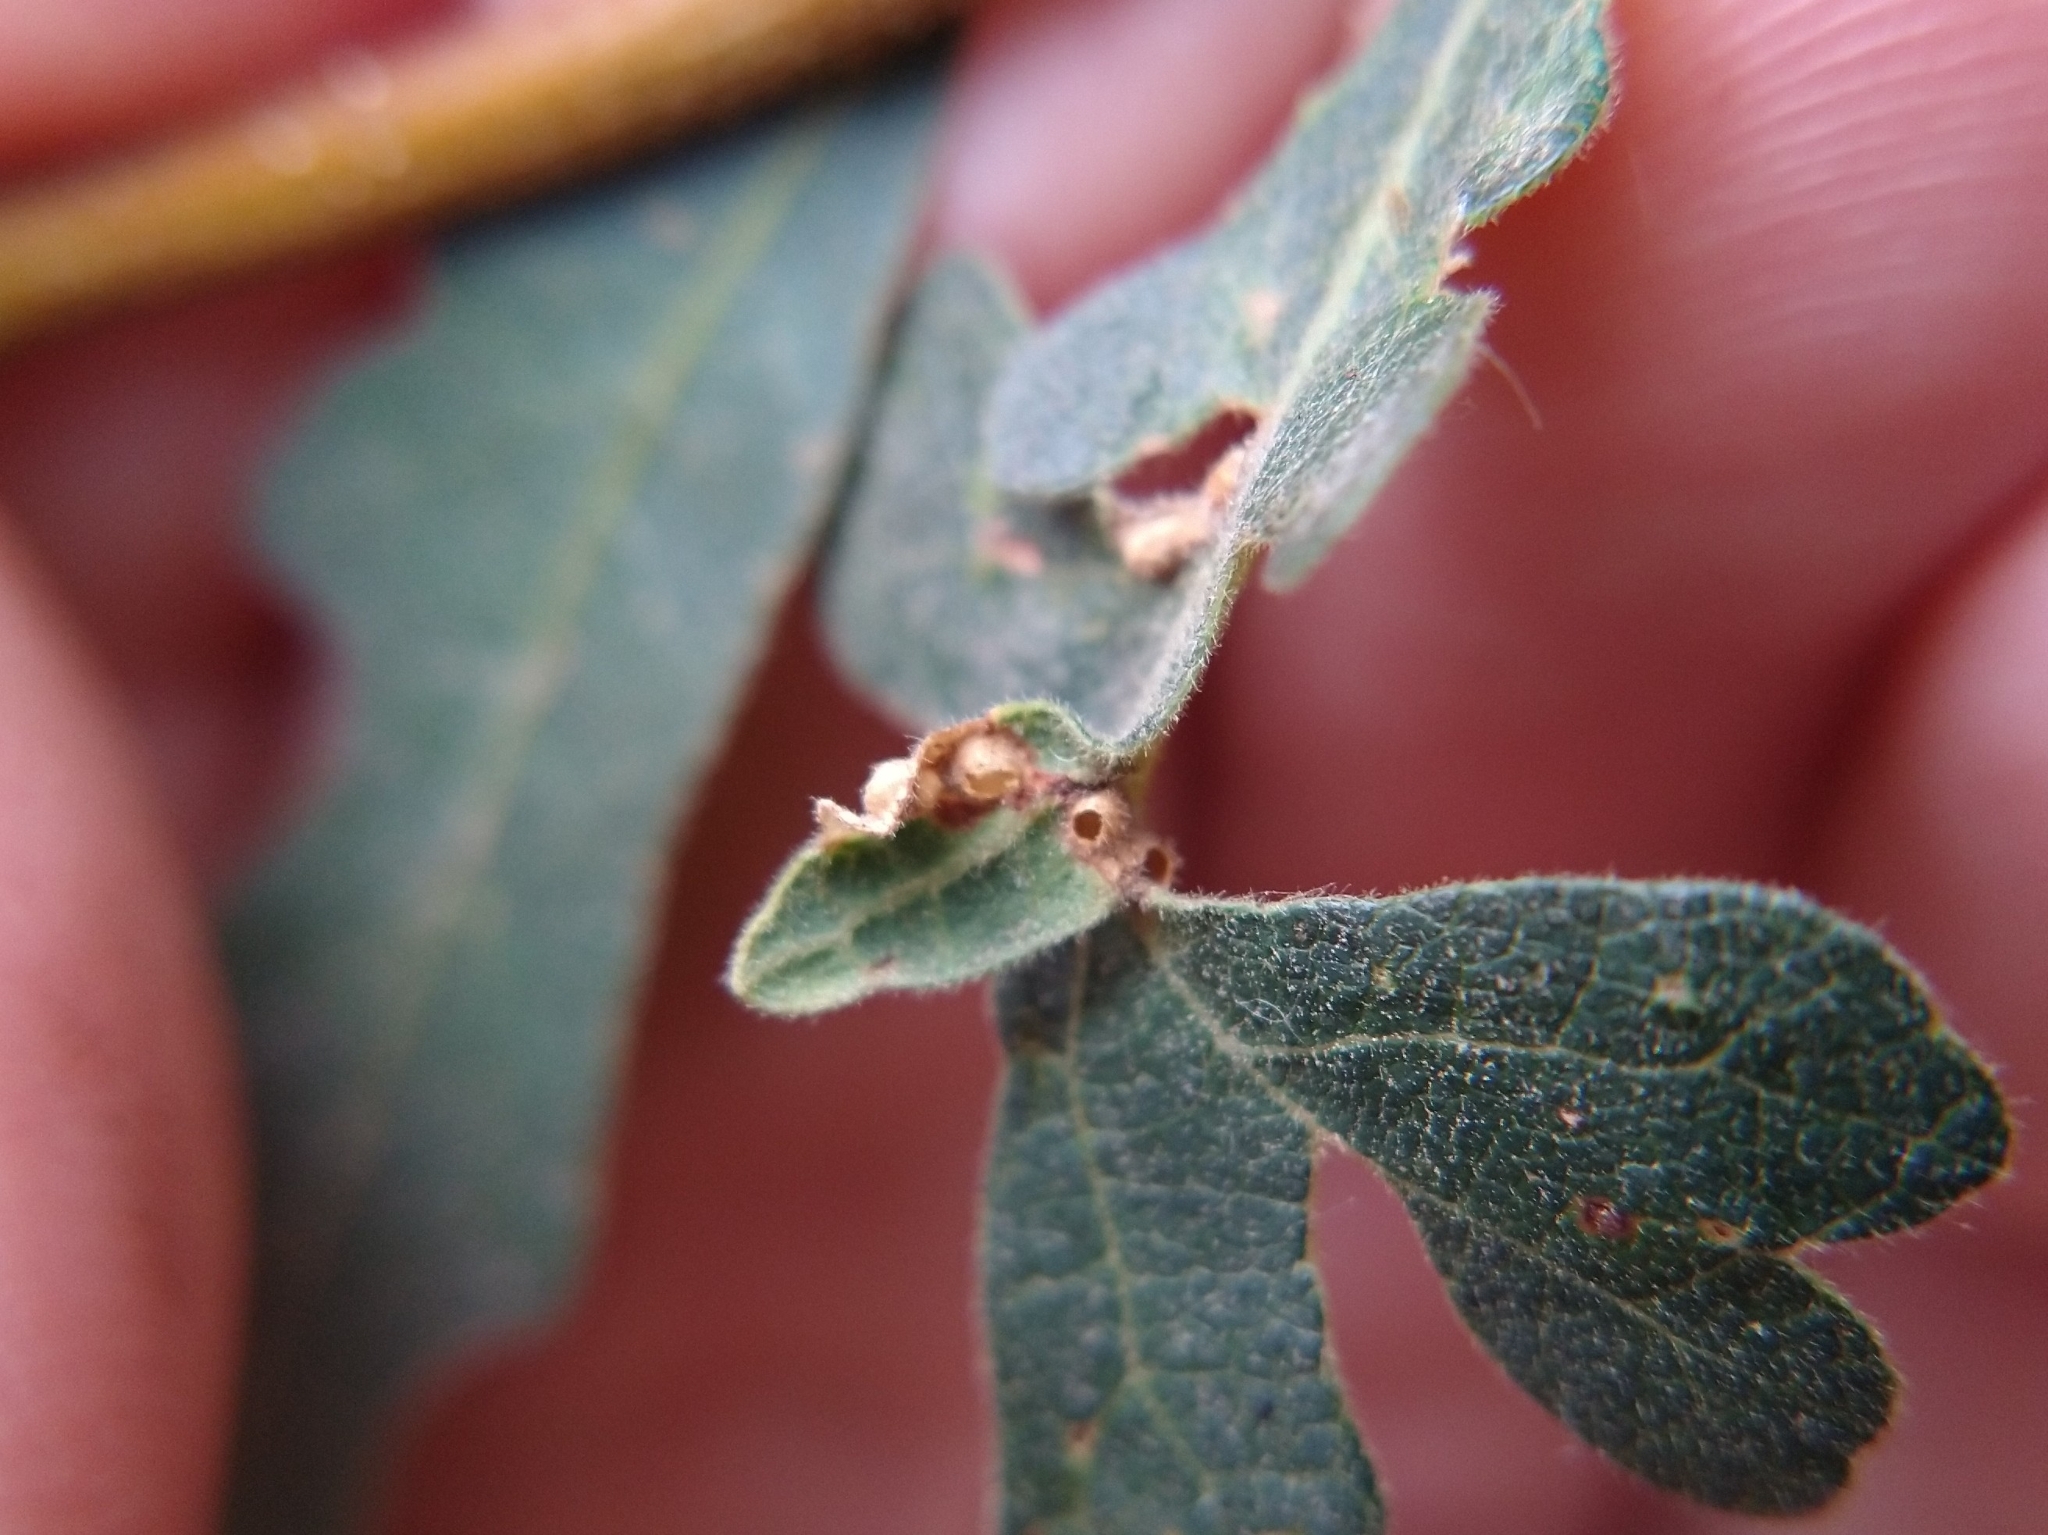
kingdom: Animalia
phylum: Arthropoda
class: Insecta
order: Hymenoptera
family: Cynipidae
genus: Neuroterus
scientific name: Neuroterus saltarius
